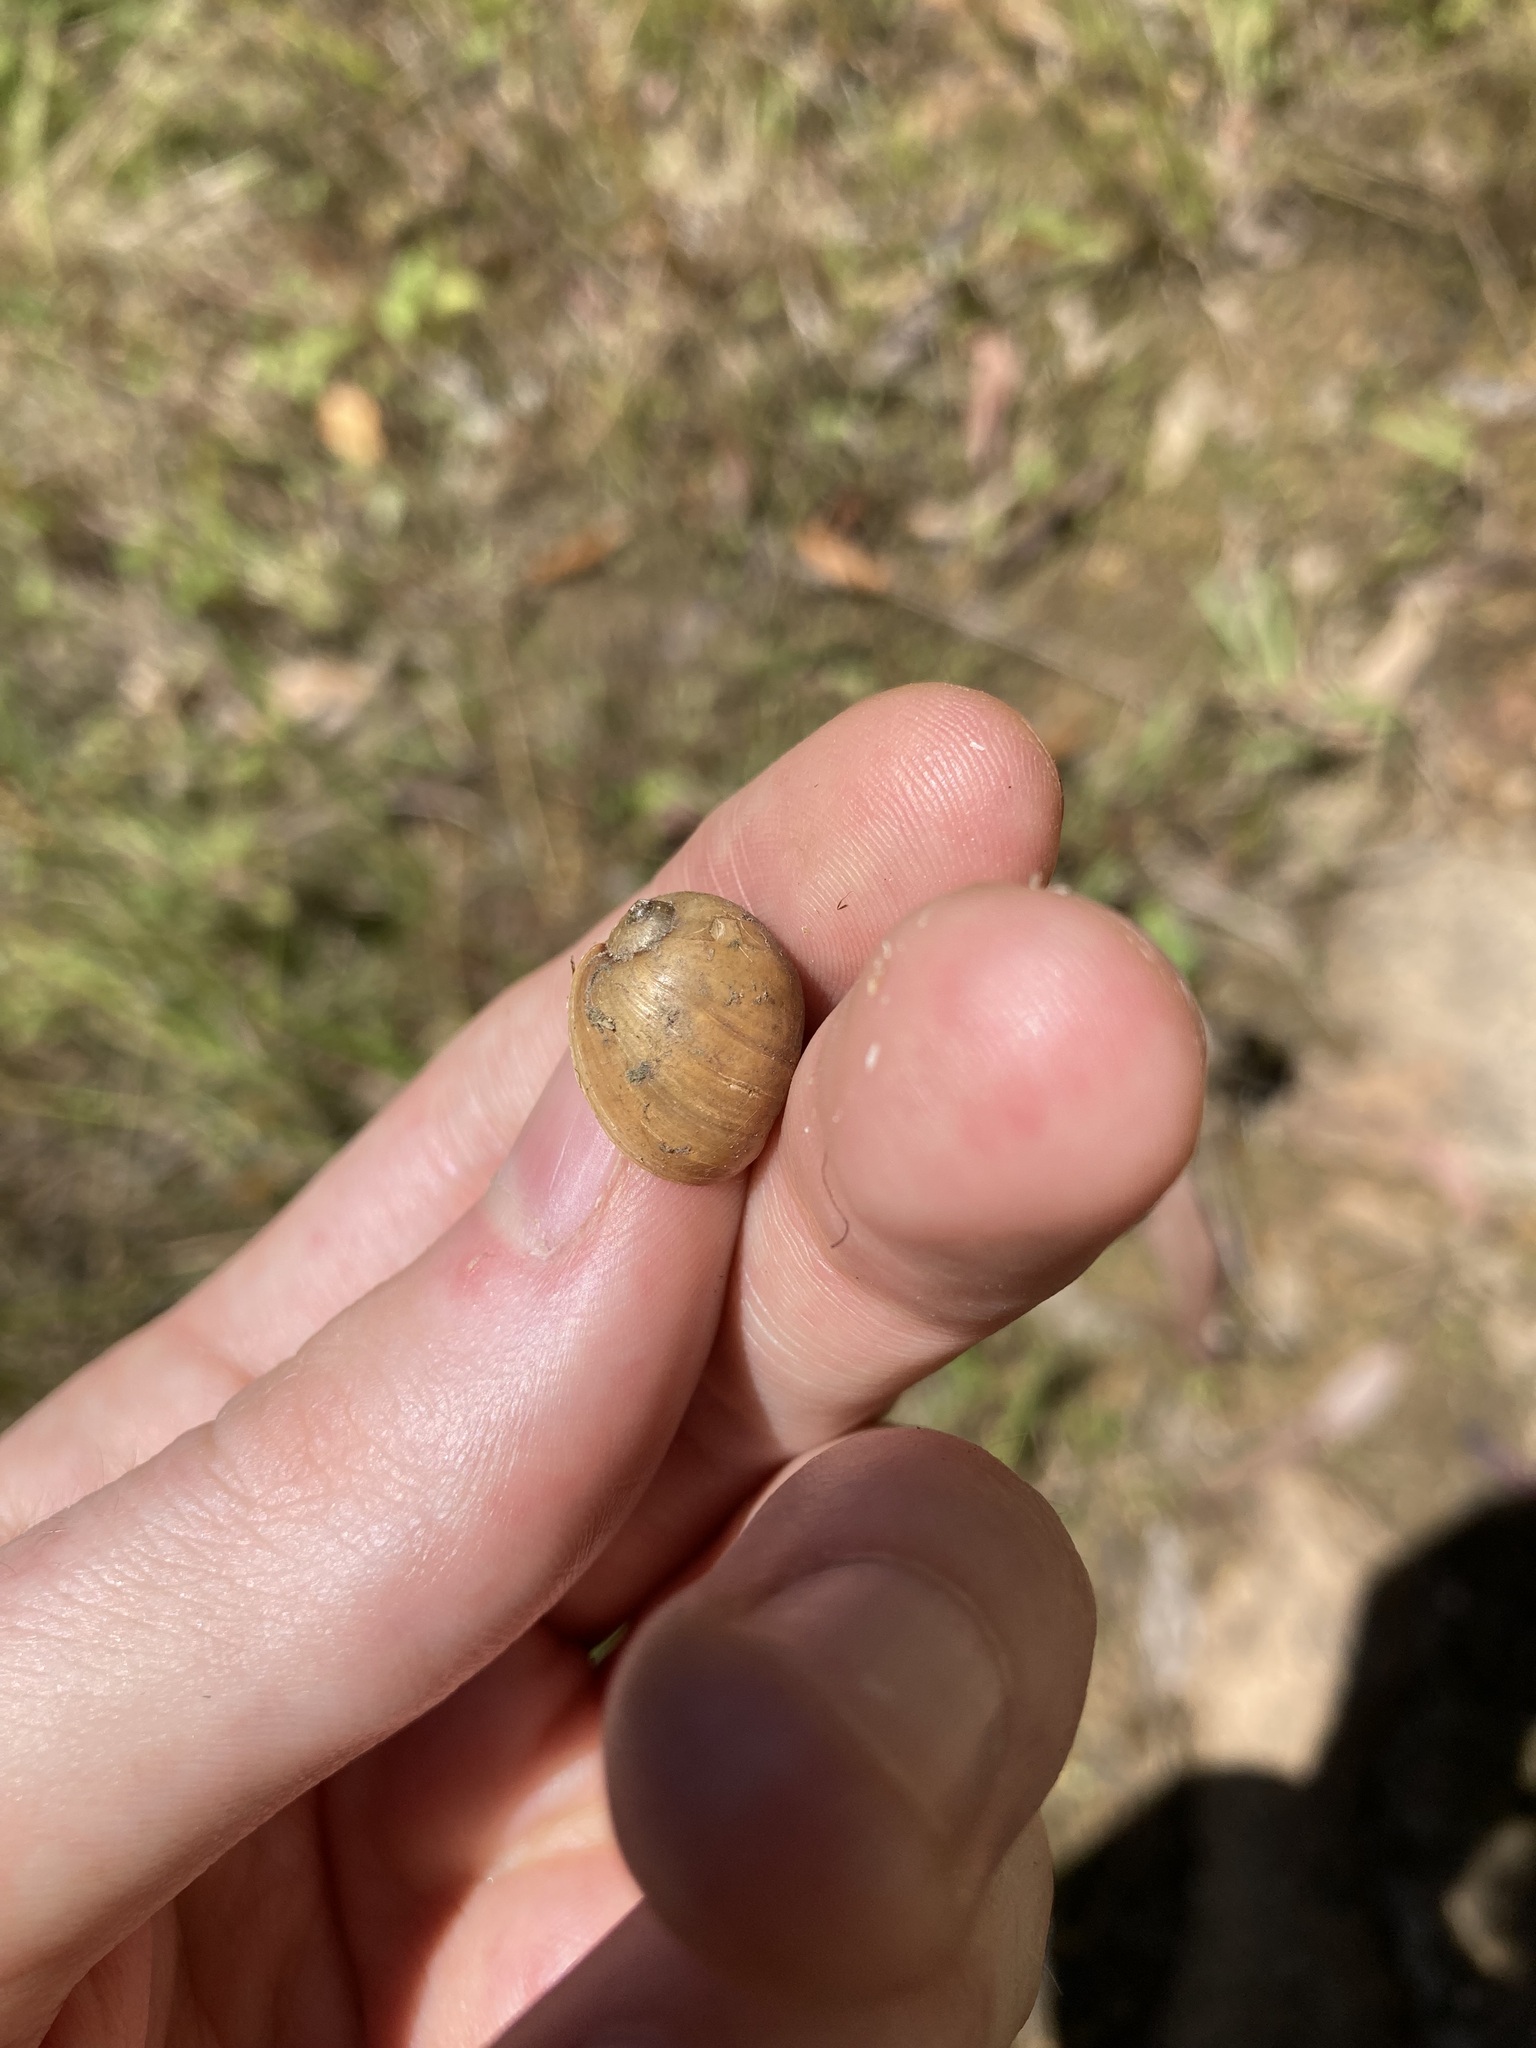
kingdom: Animalia
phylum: Mollusca
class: Gastropoda
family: Lymnaeidae
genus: Bullastra
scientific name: Bullastra lessoni
